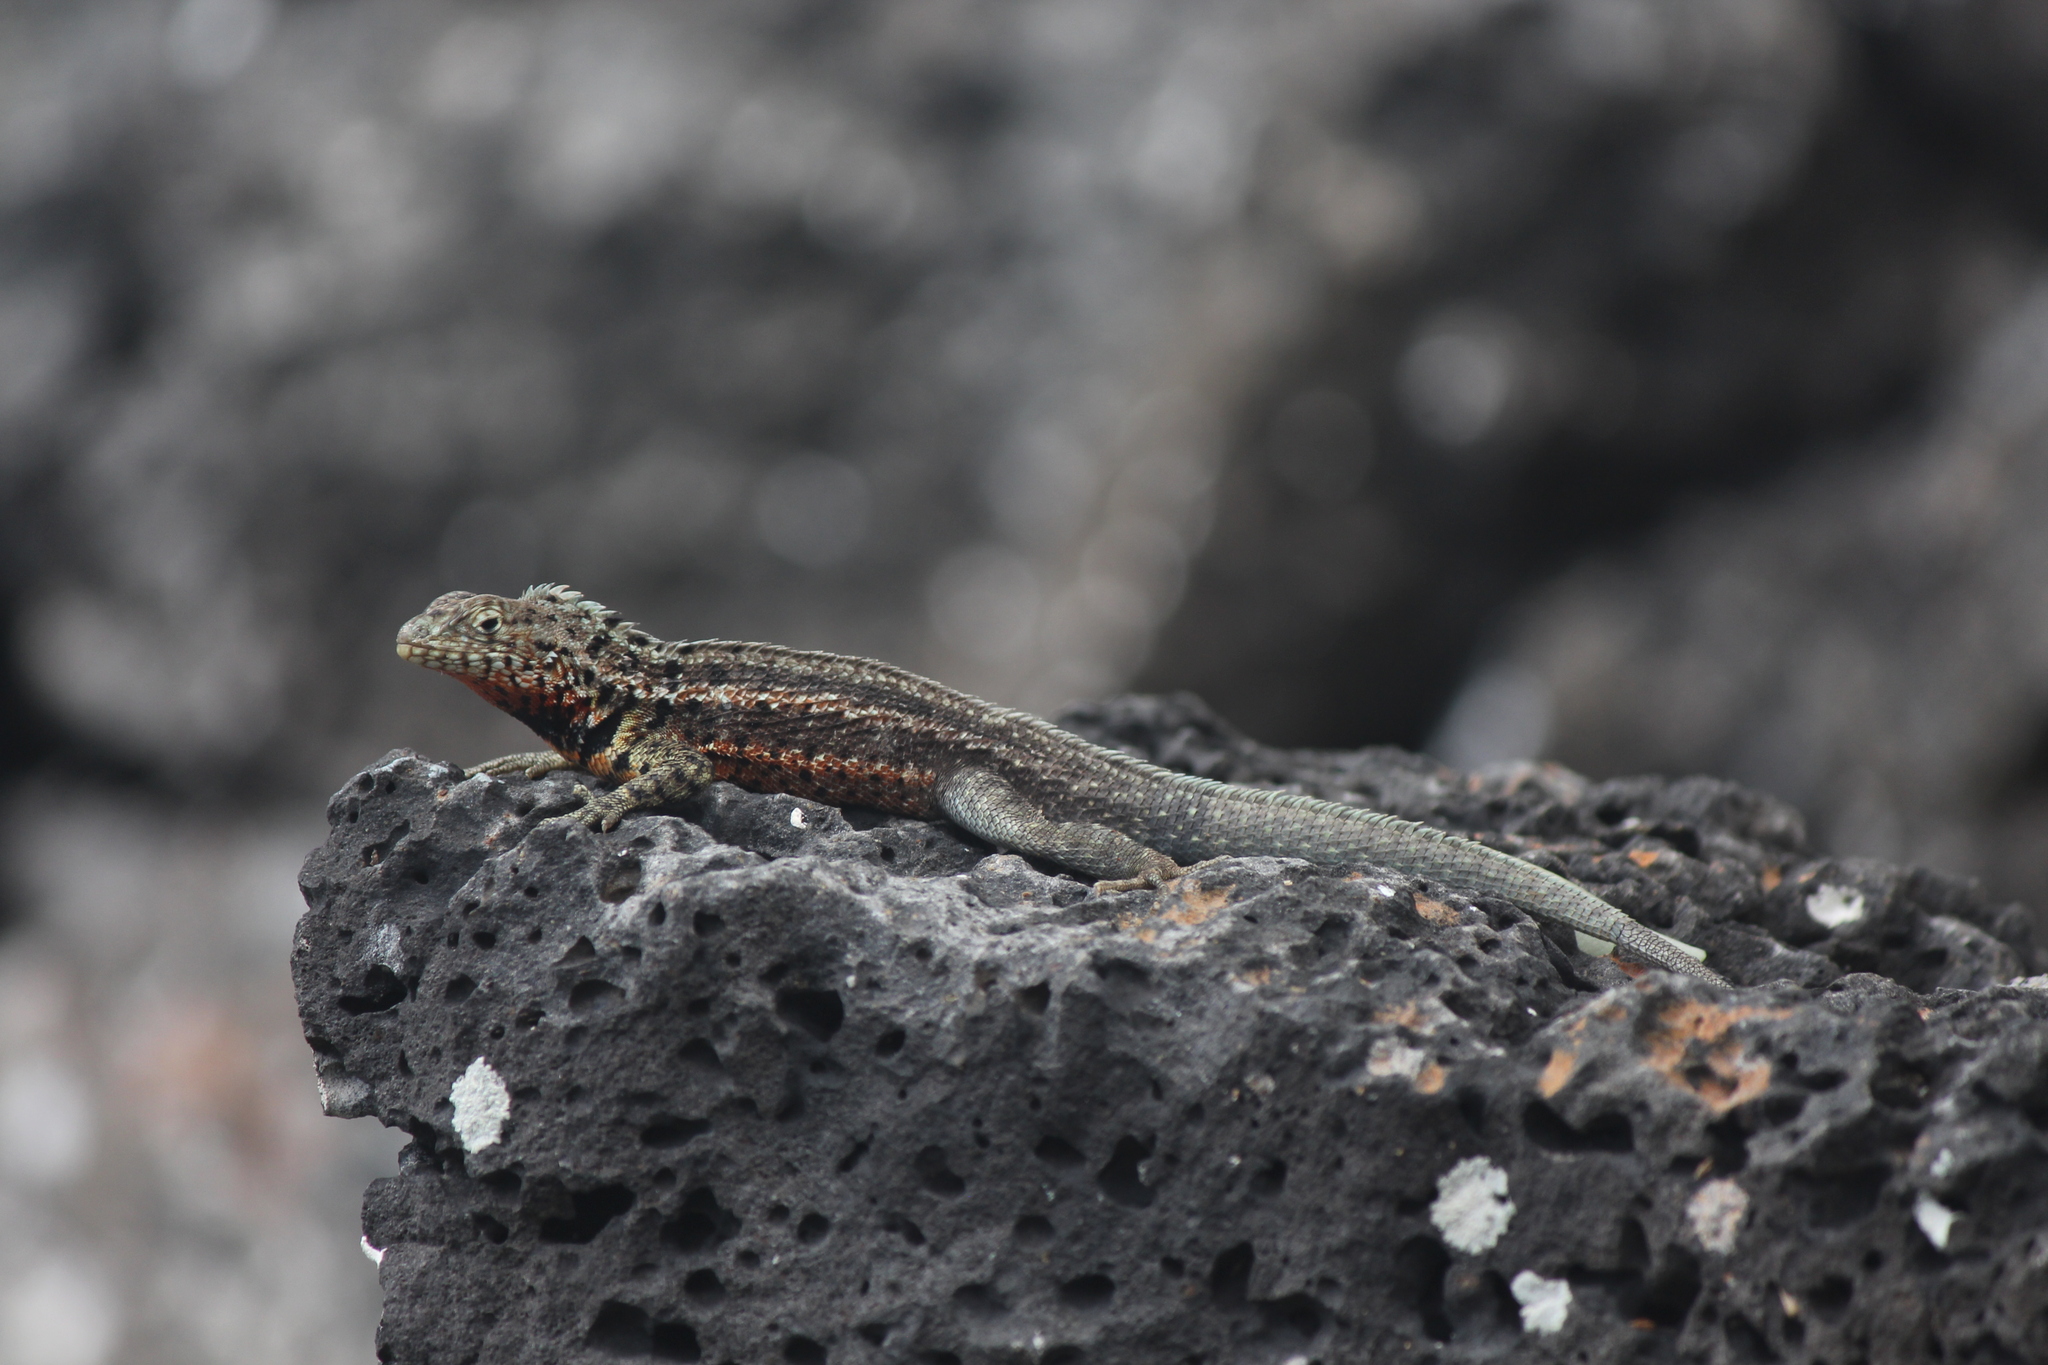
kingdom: Animalia
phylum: Chordata
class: Squamata
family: Tropiduridae
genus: Microlophus
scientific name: Microlophus indefatigabilis
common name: Galapagos lava lizard
